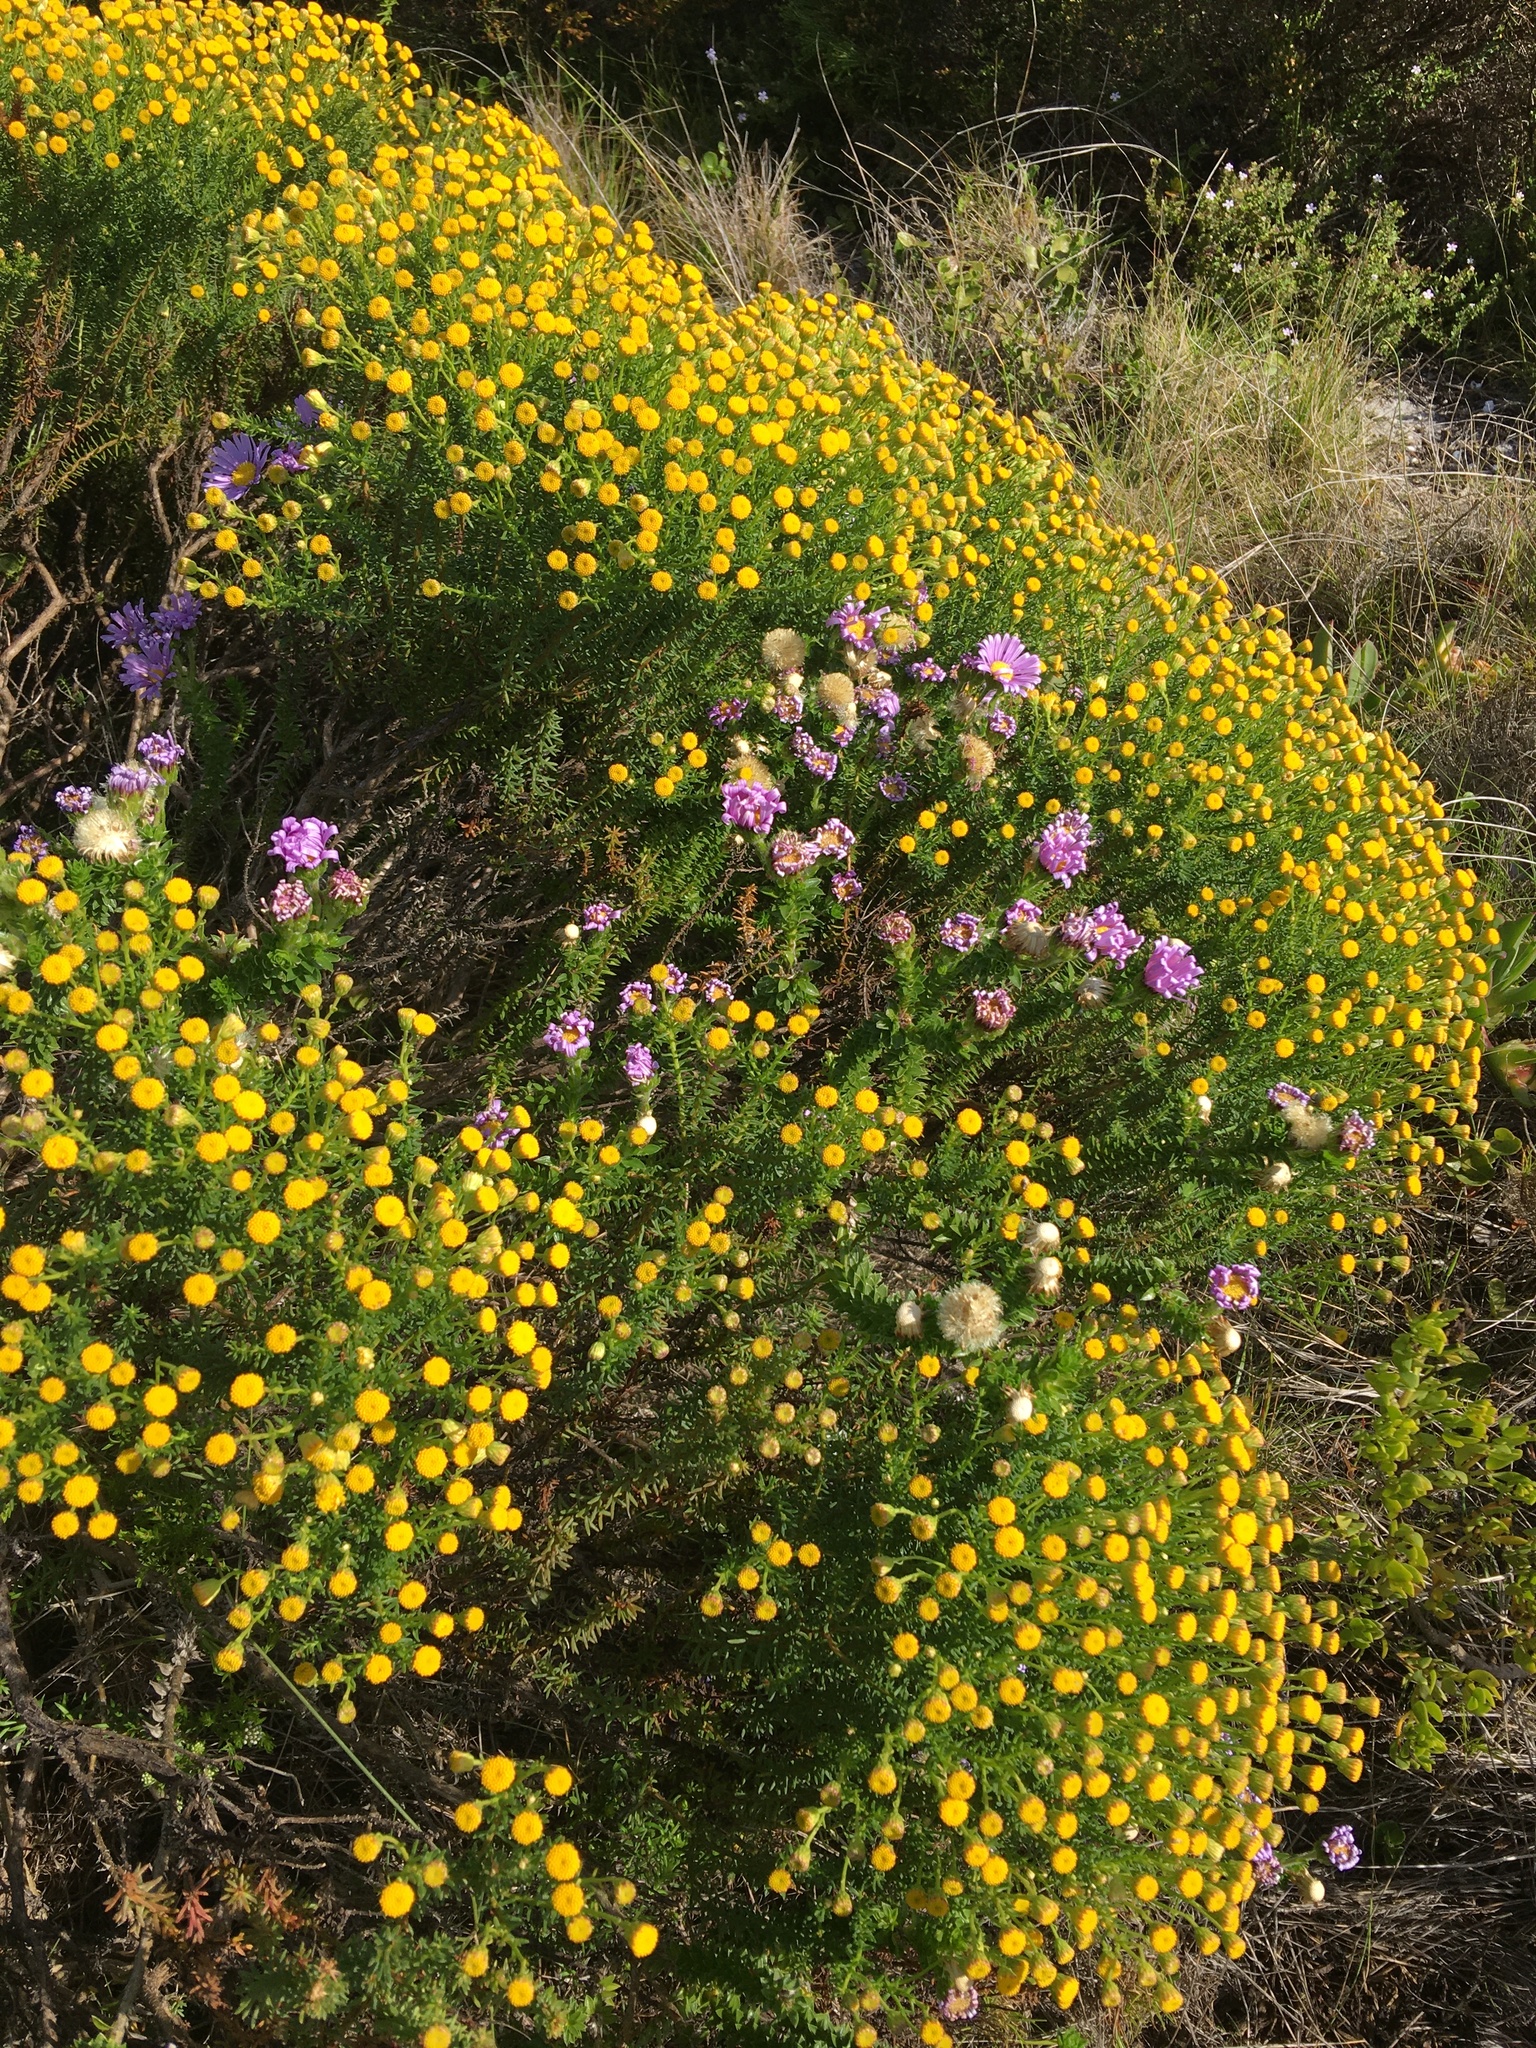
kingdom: Plantae
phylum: Tracheophyta
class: Magnoliopsida
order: Asterales
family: Asteraceae
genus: Felicia
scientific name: Felicia echinata
